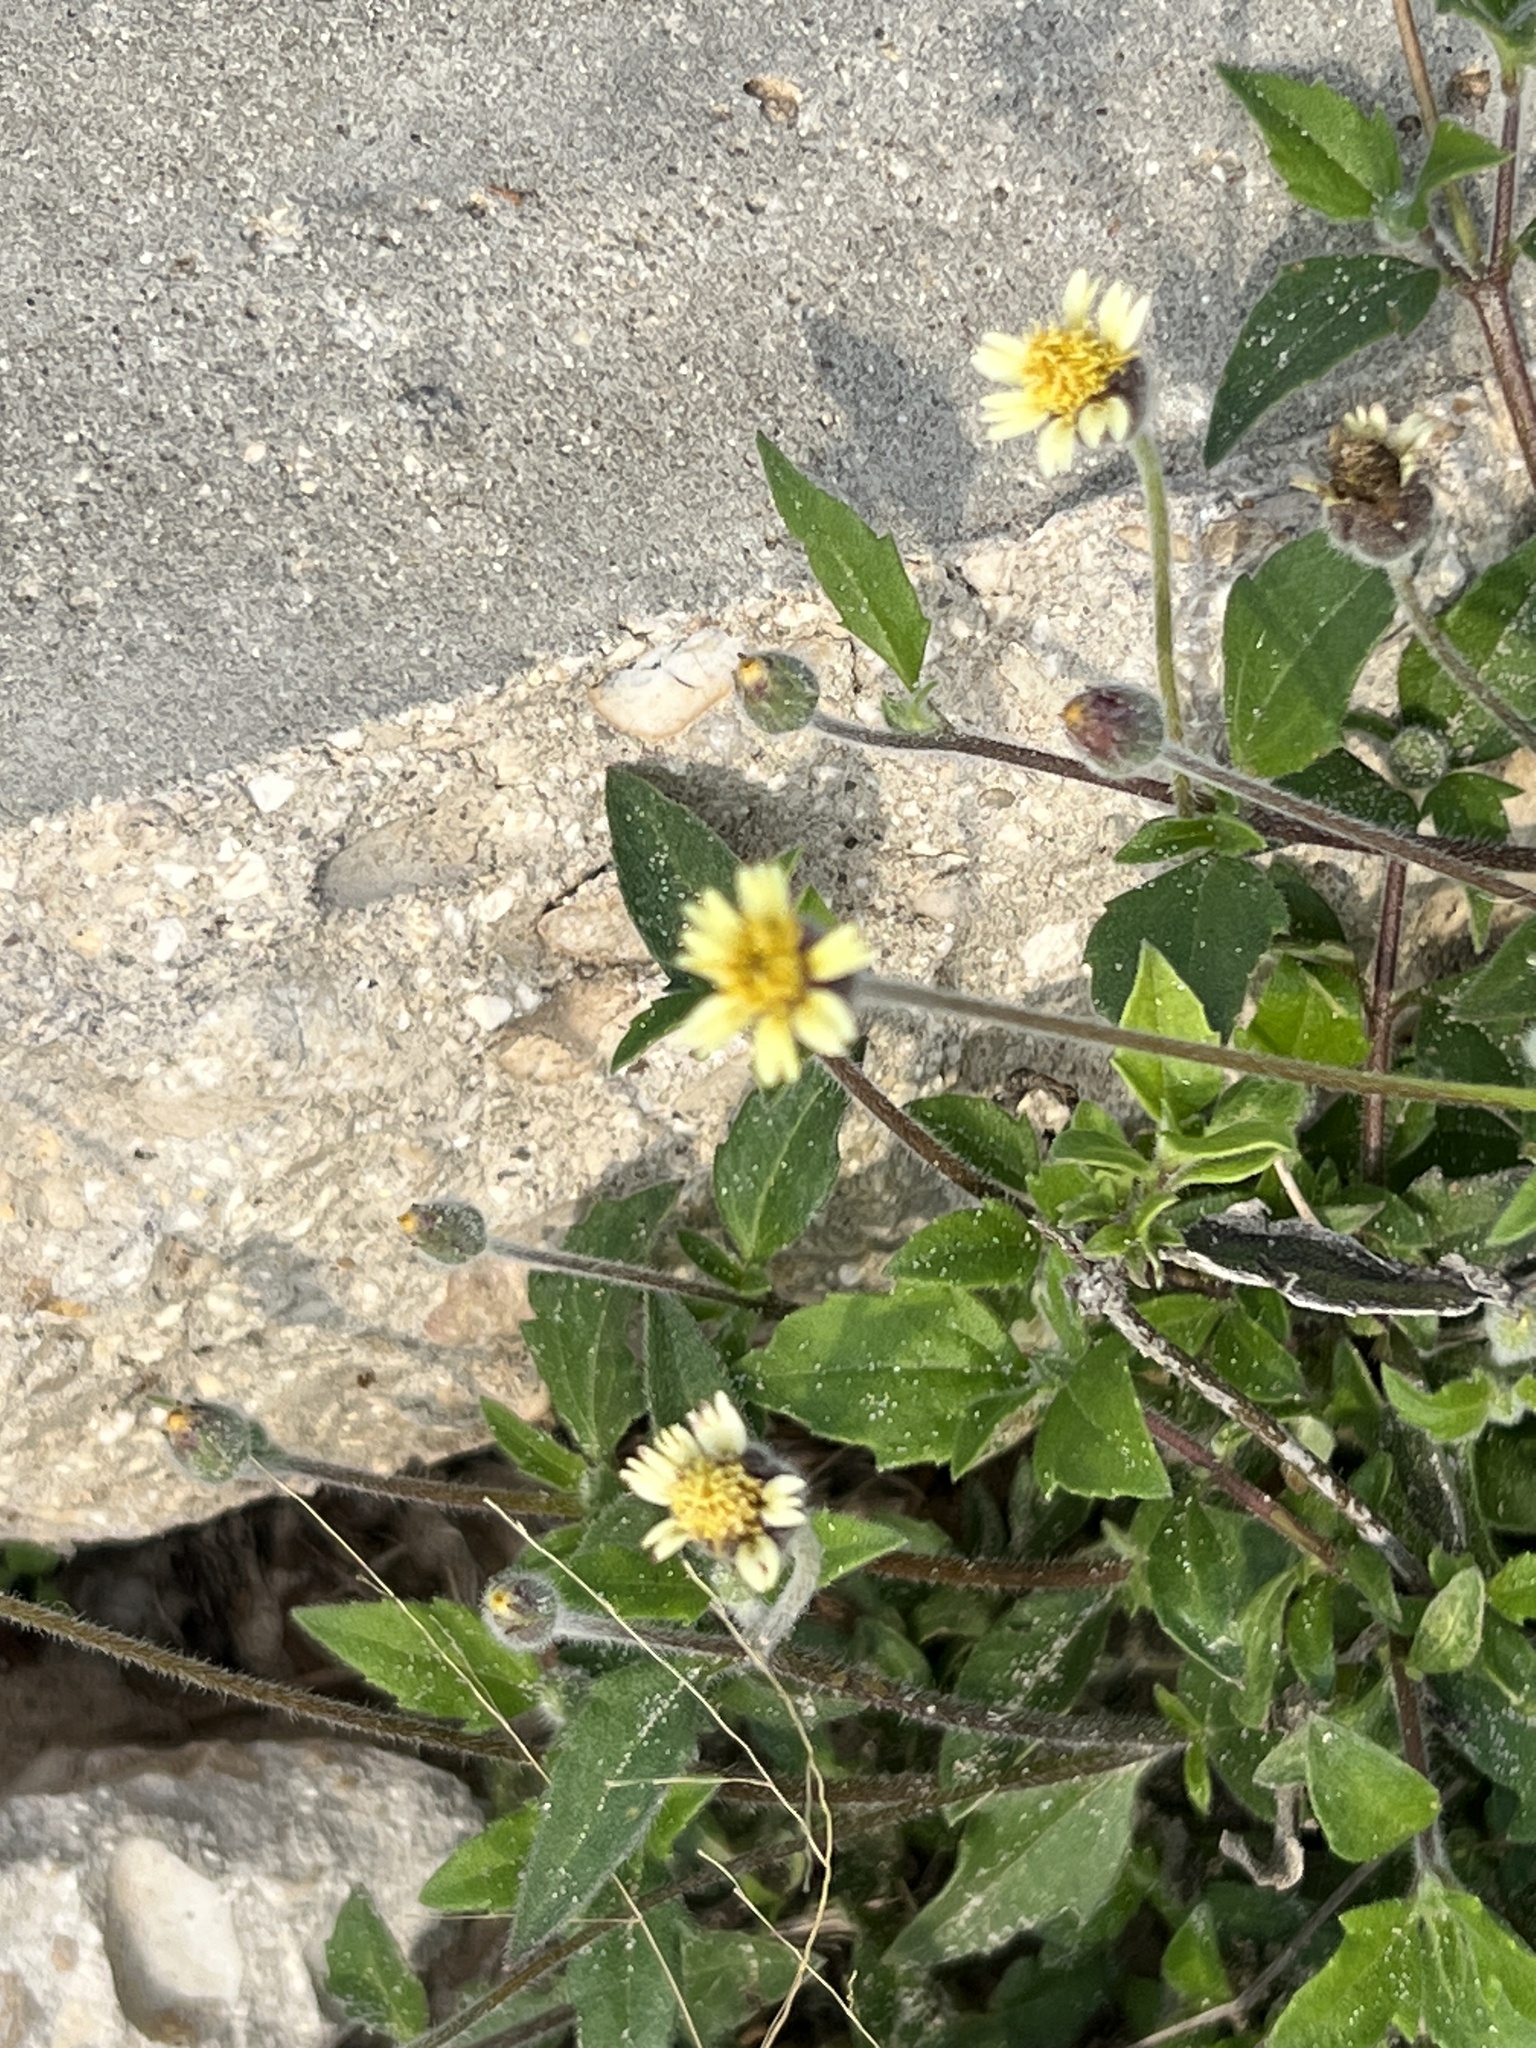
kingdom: Plantae
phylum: Tracheophyta
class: Magnoliopsida
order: Asterales
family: Asteraceae
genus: Tridax
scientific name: Tridax procumbens
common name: Coatbuttons
